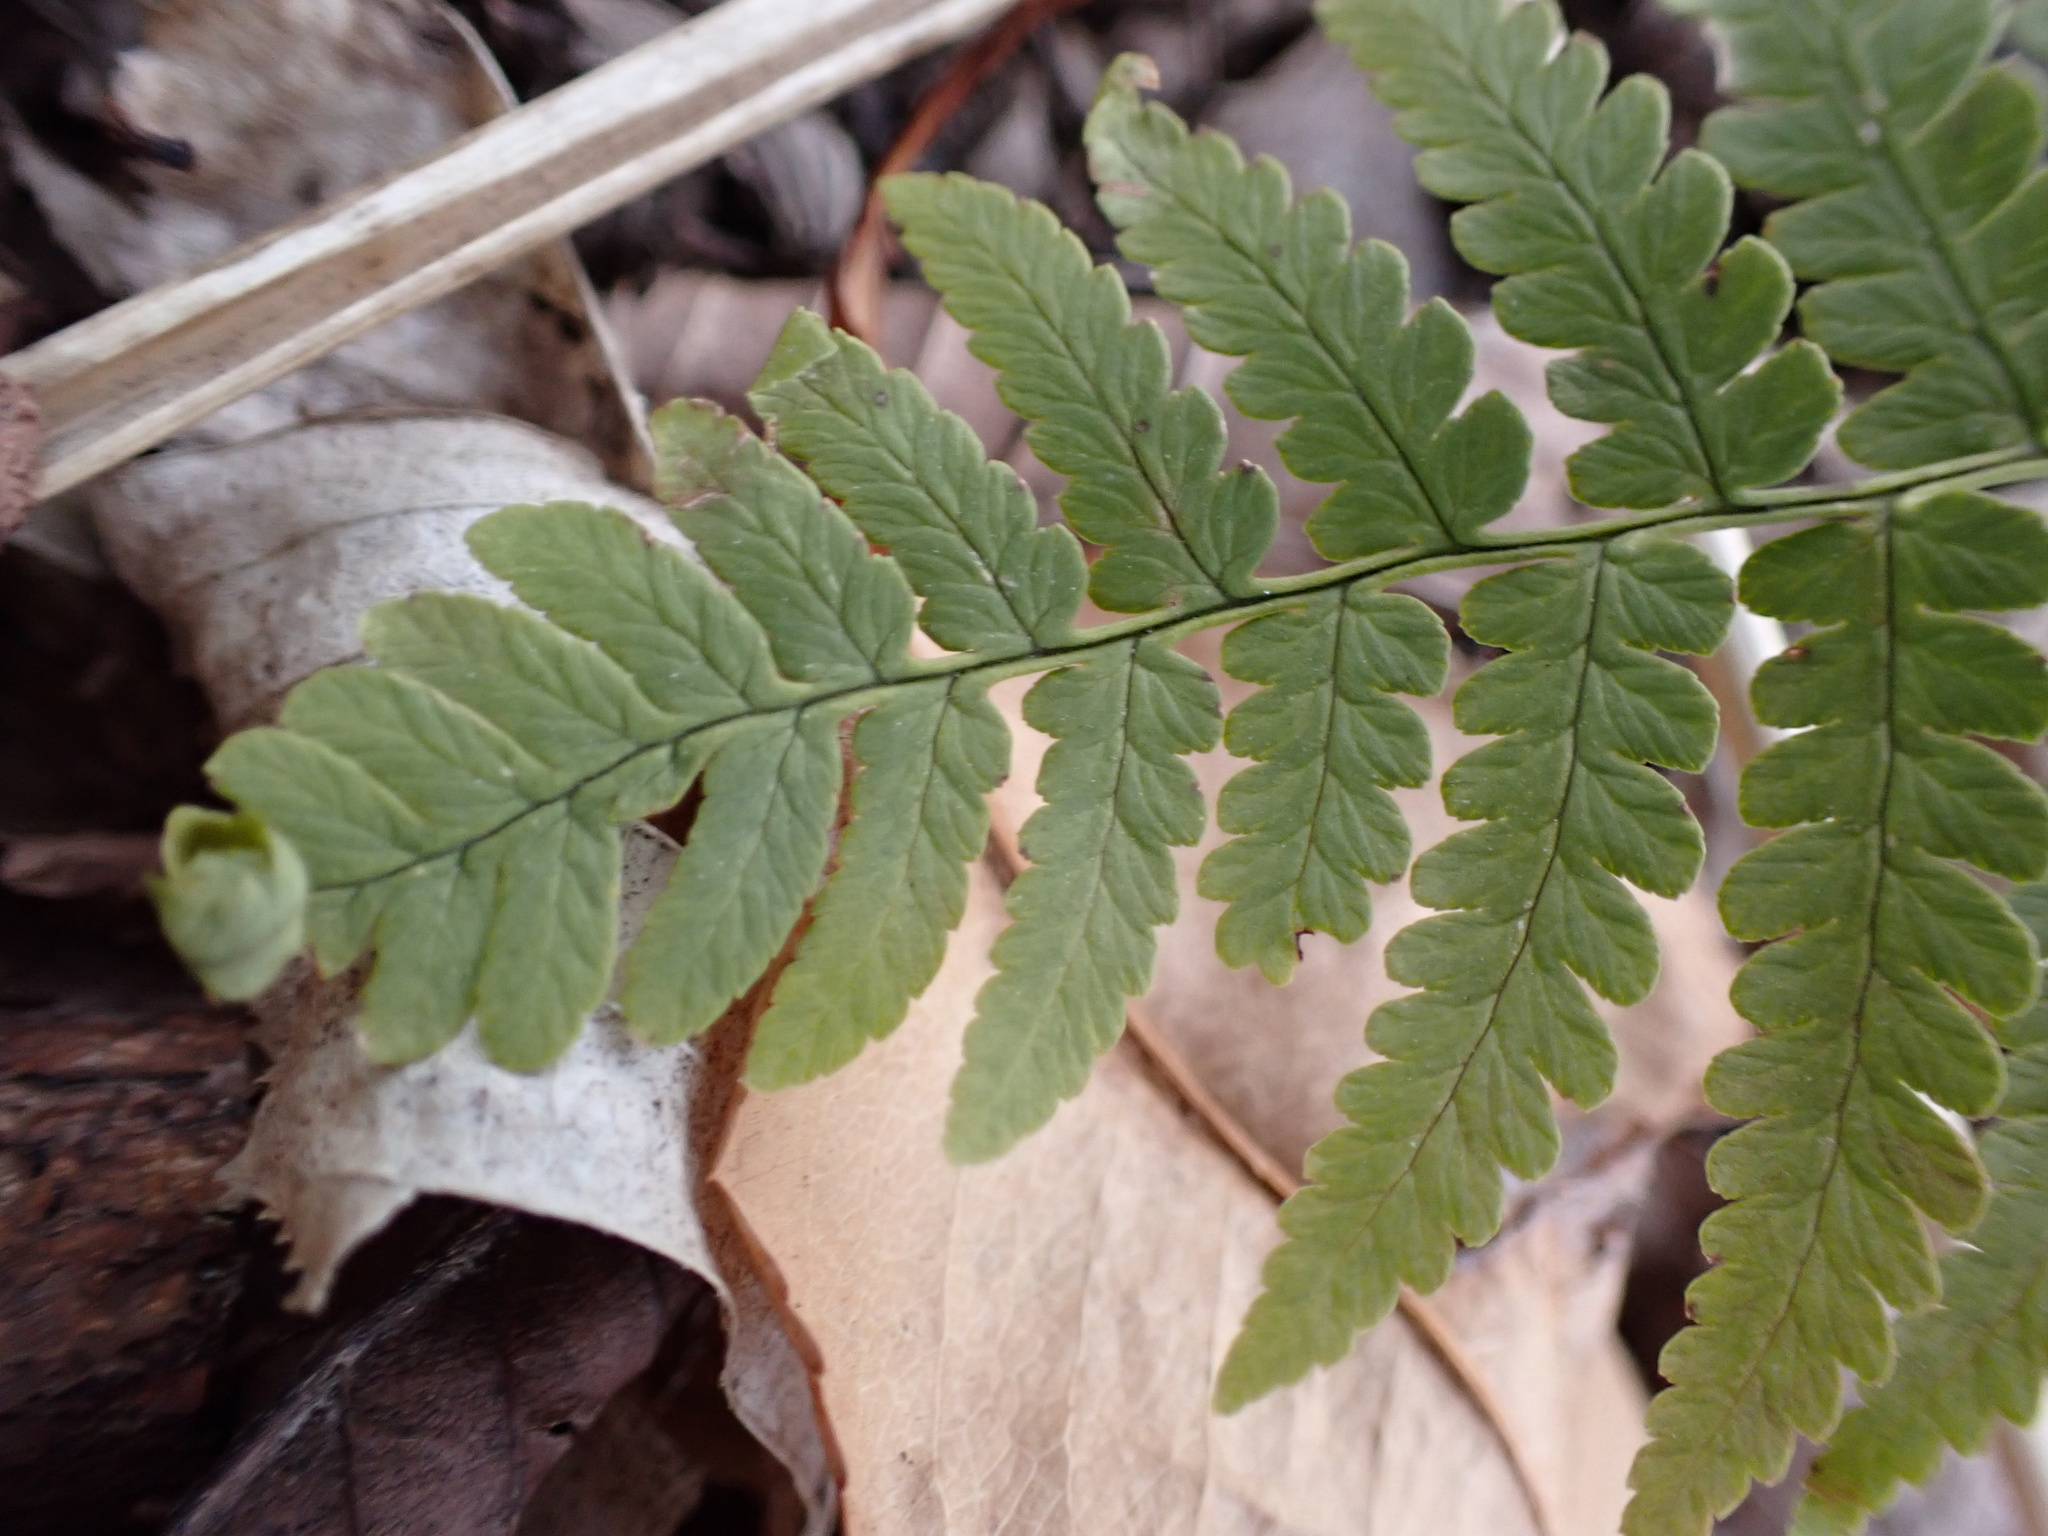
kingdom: Plantae
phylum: Tracheophyta
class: Polypodiopsida
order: Polypodiales
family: Dryopteridaceae
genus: Dryopteris
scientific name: Dryopteris marginalis
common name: Marginal wood fern
